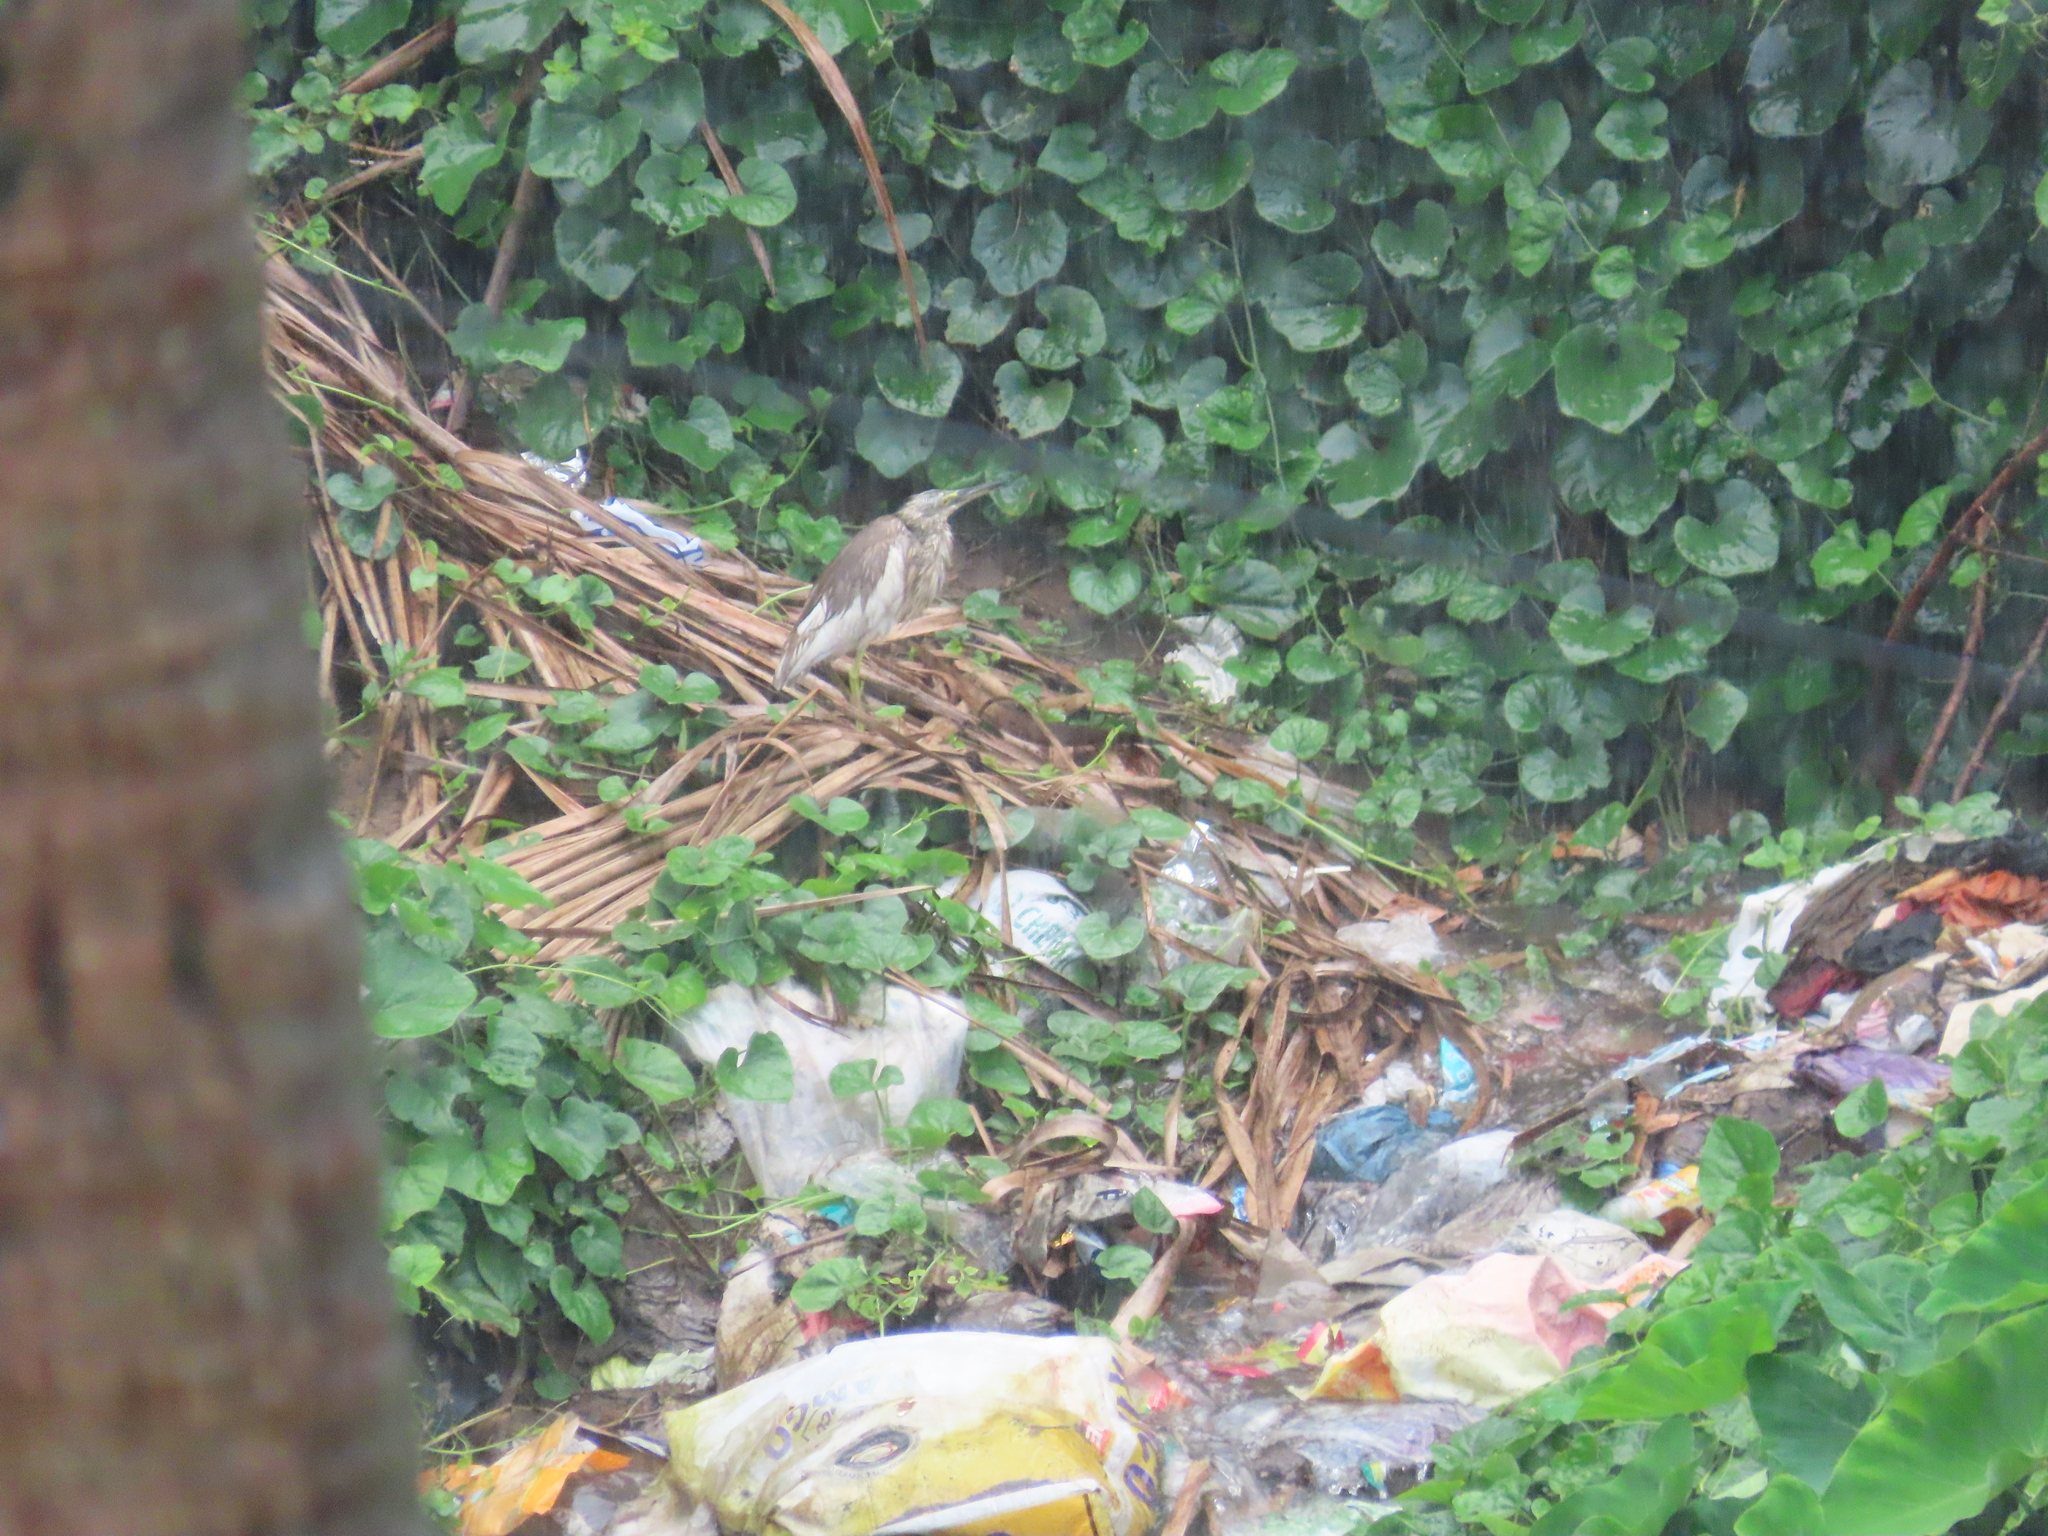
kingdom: Animalia
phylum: Chordata
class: Aves
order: Pelecaniformes
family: Ardeidae
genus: Ardeola
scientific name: Ardeola grayii
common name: Indian pond heron
